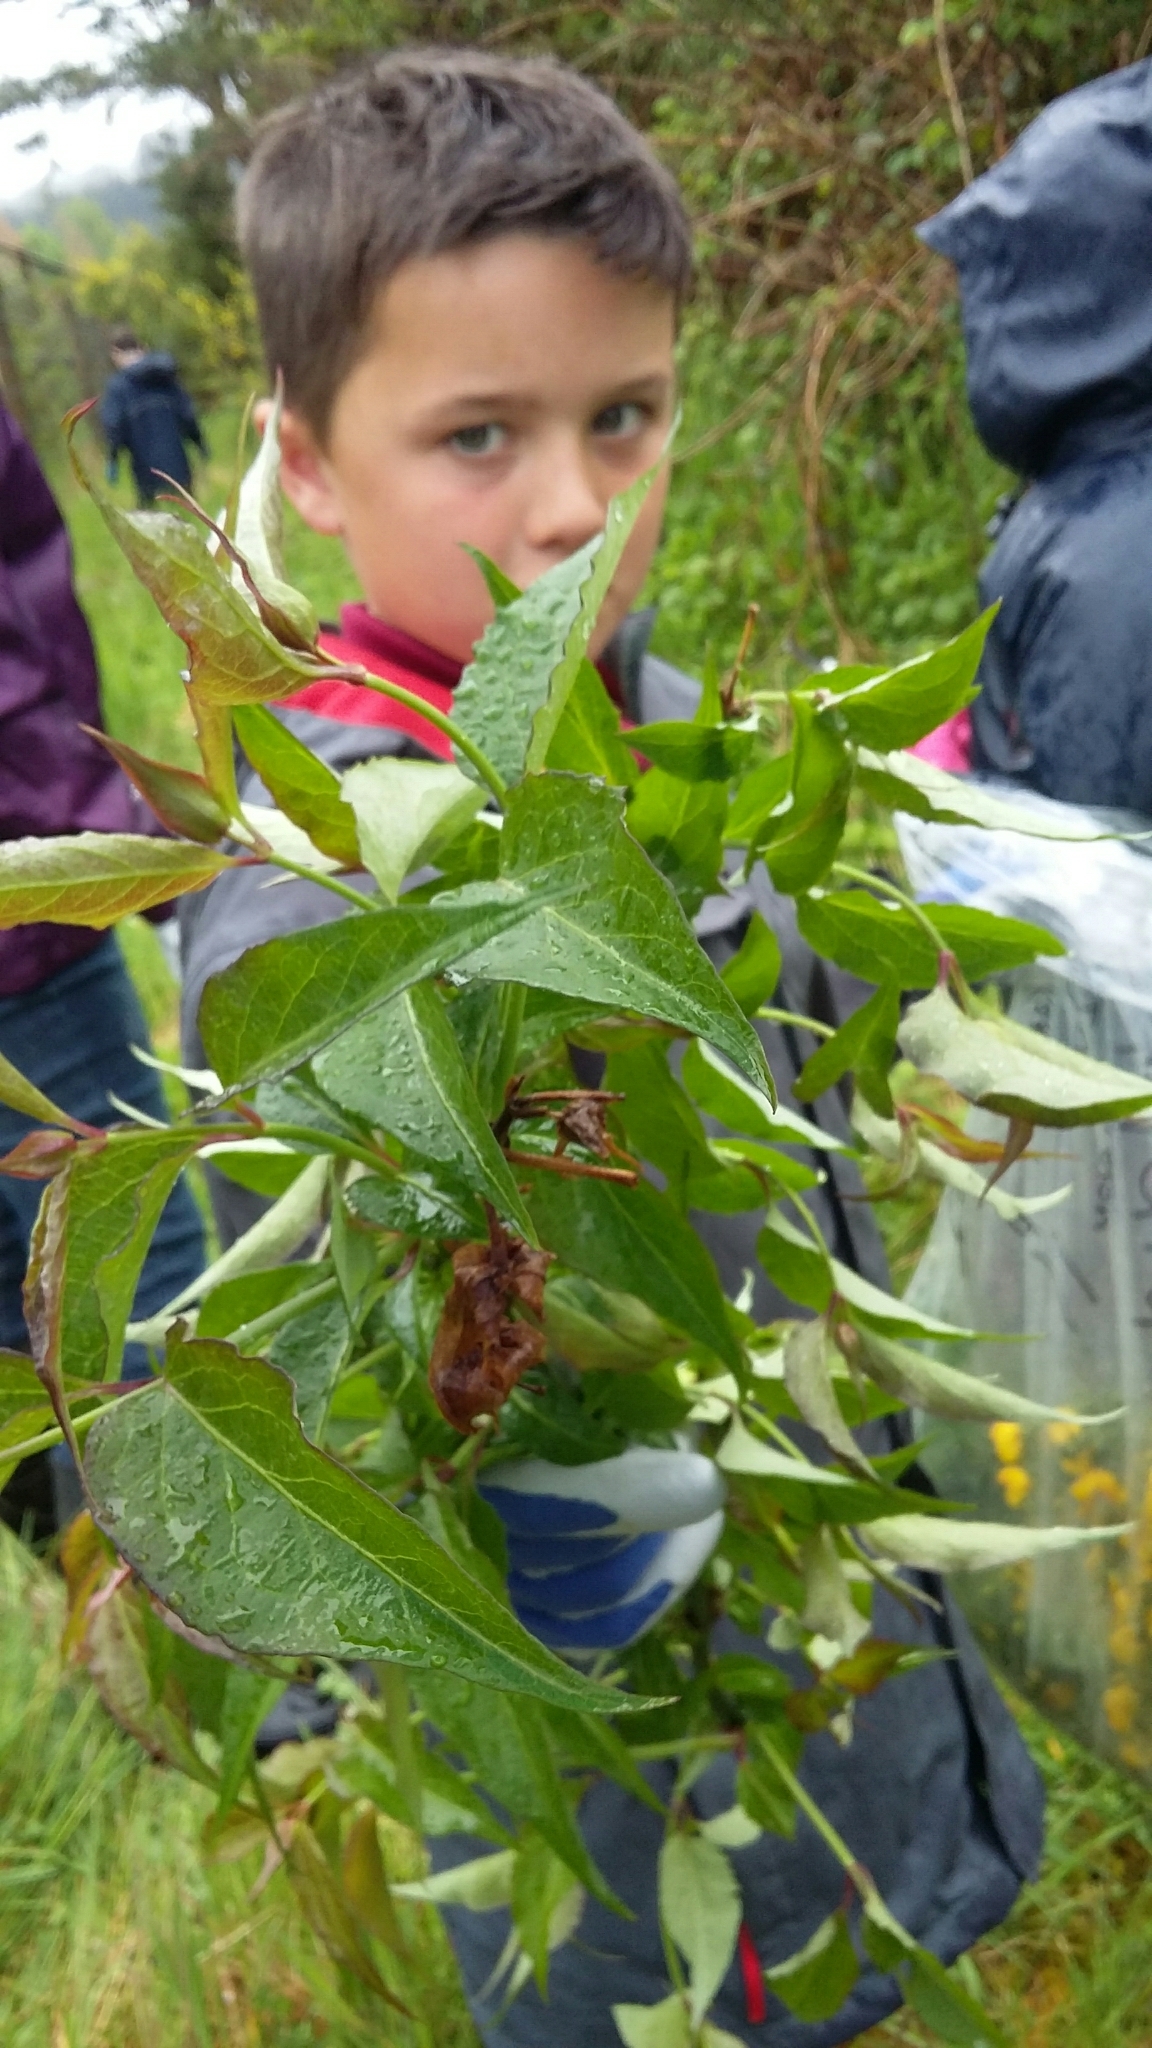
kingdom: Plantae
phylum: Tracheophyta
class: Magnoliopsida
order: Dipsacales
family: Caprifoliaceae
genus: Leycesteria
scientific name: Leycesteria formosa
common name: Himalayan honeysuckle
